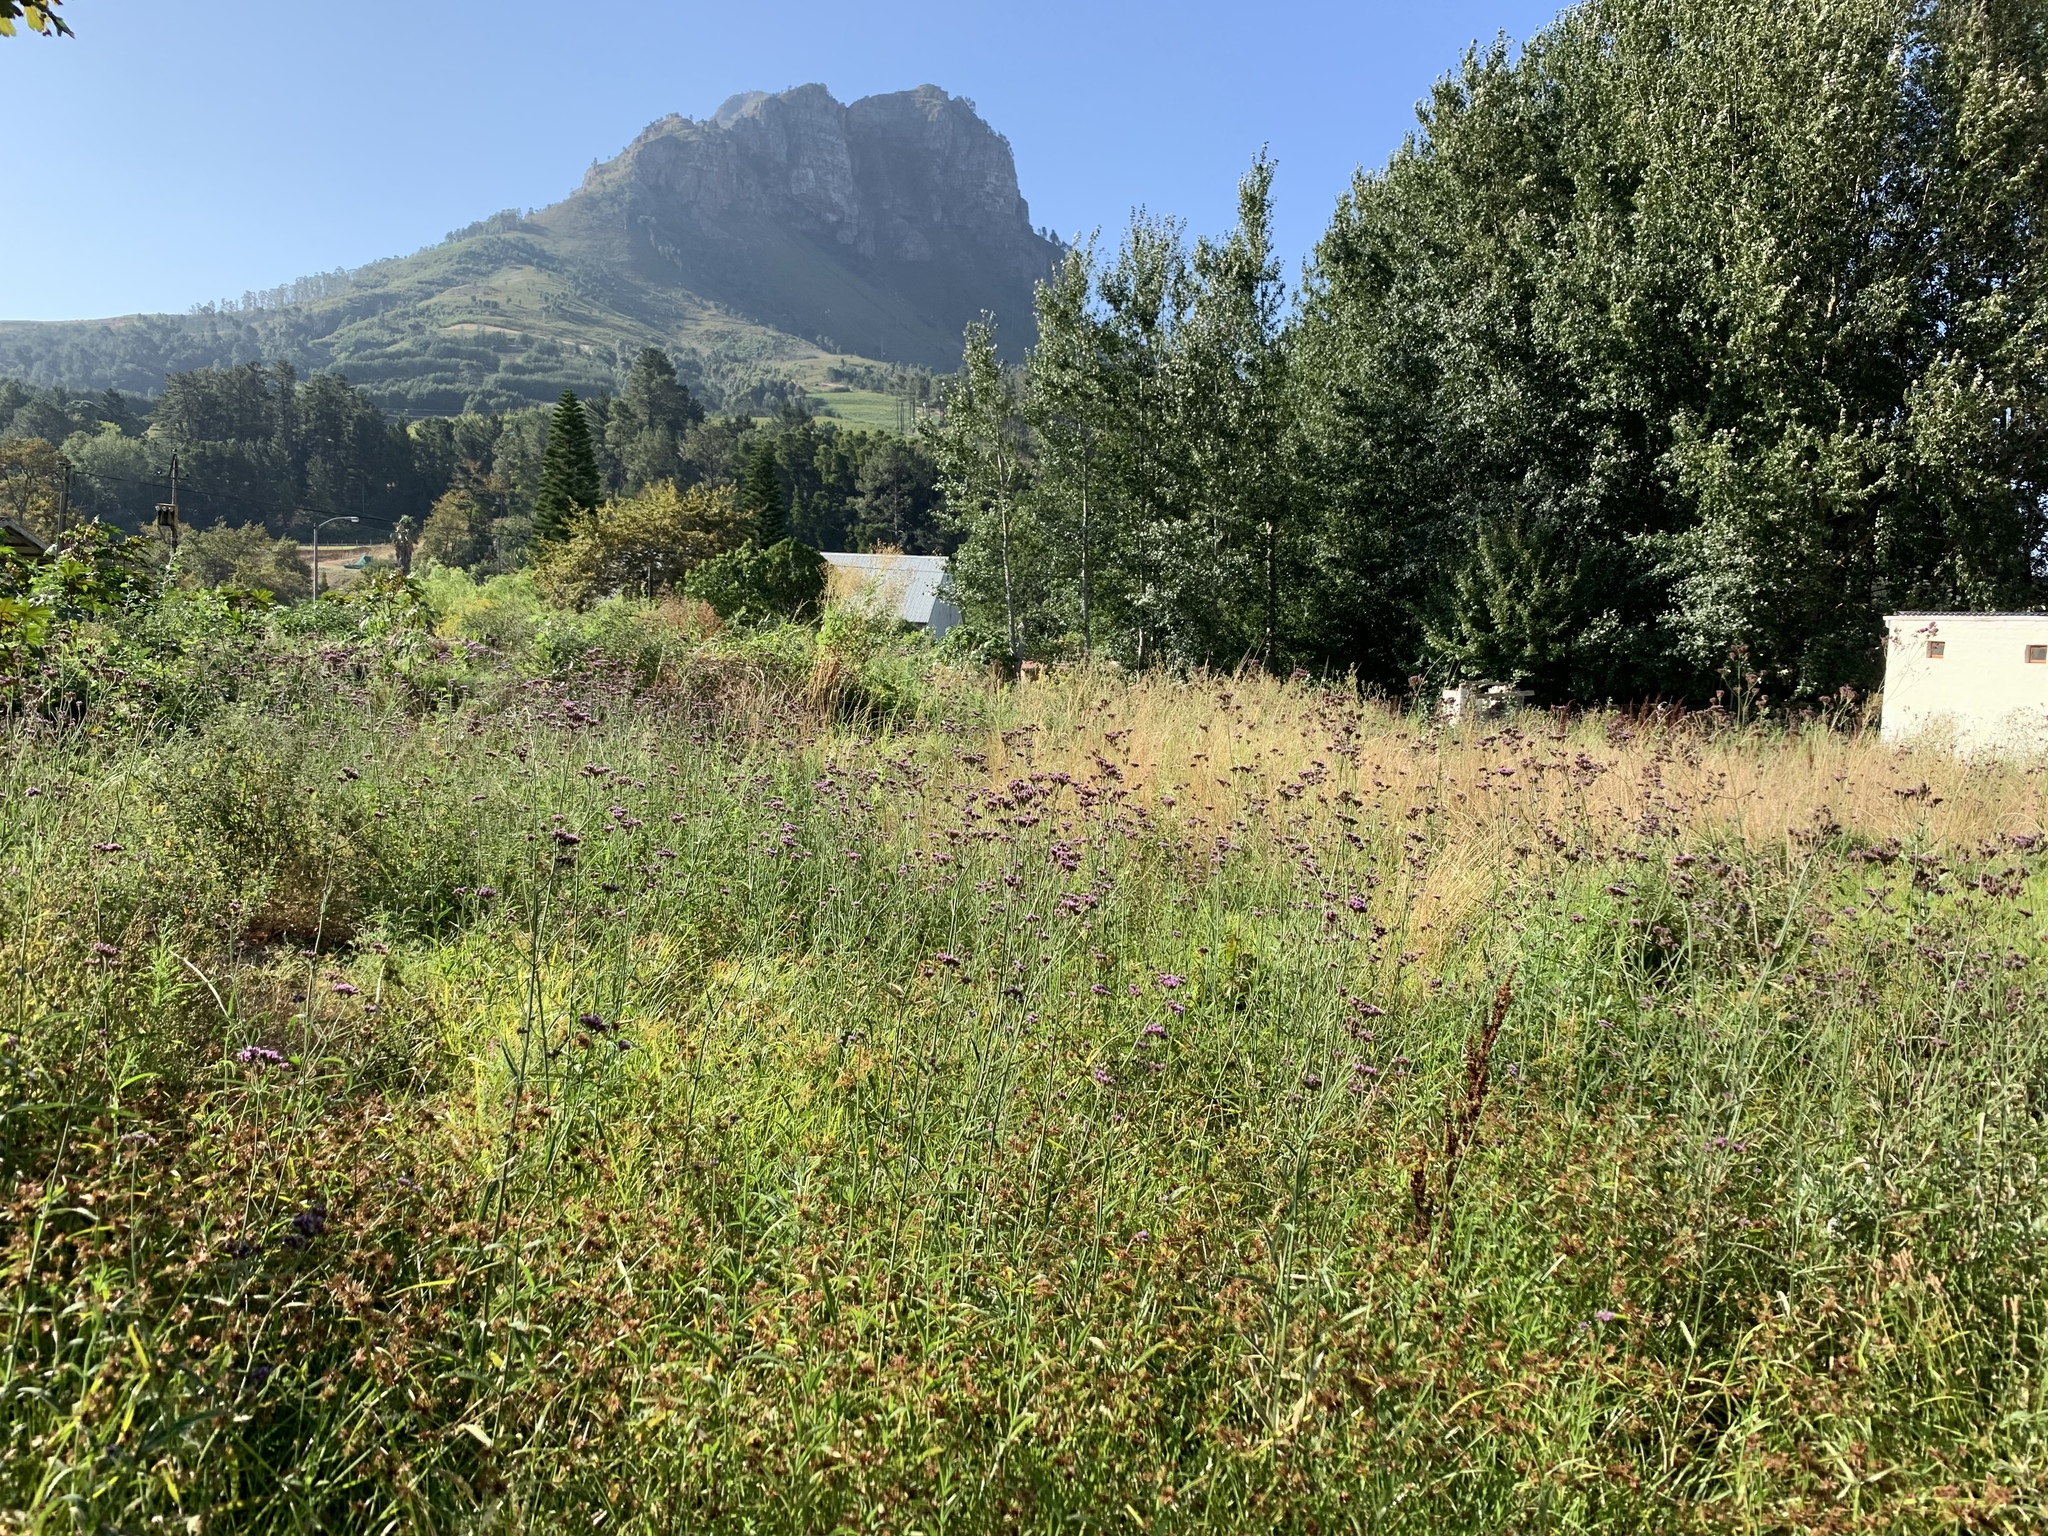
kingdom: Plantae
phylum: Tracheophyta
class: Magnoliopsida
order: Lamiales
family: Verbenaceae
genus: Verbena
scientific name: Verbena bonariensis
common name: Purpletop vervain
